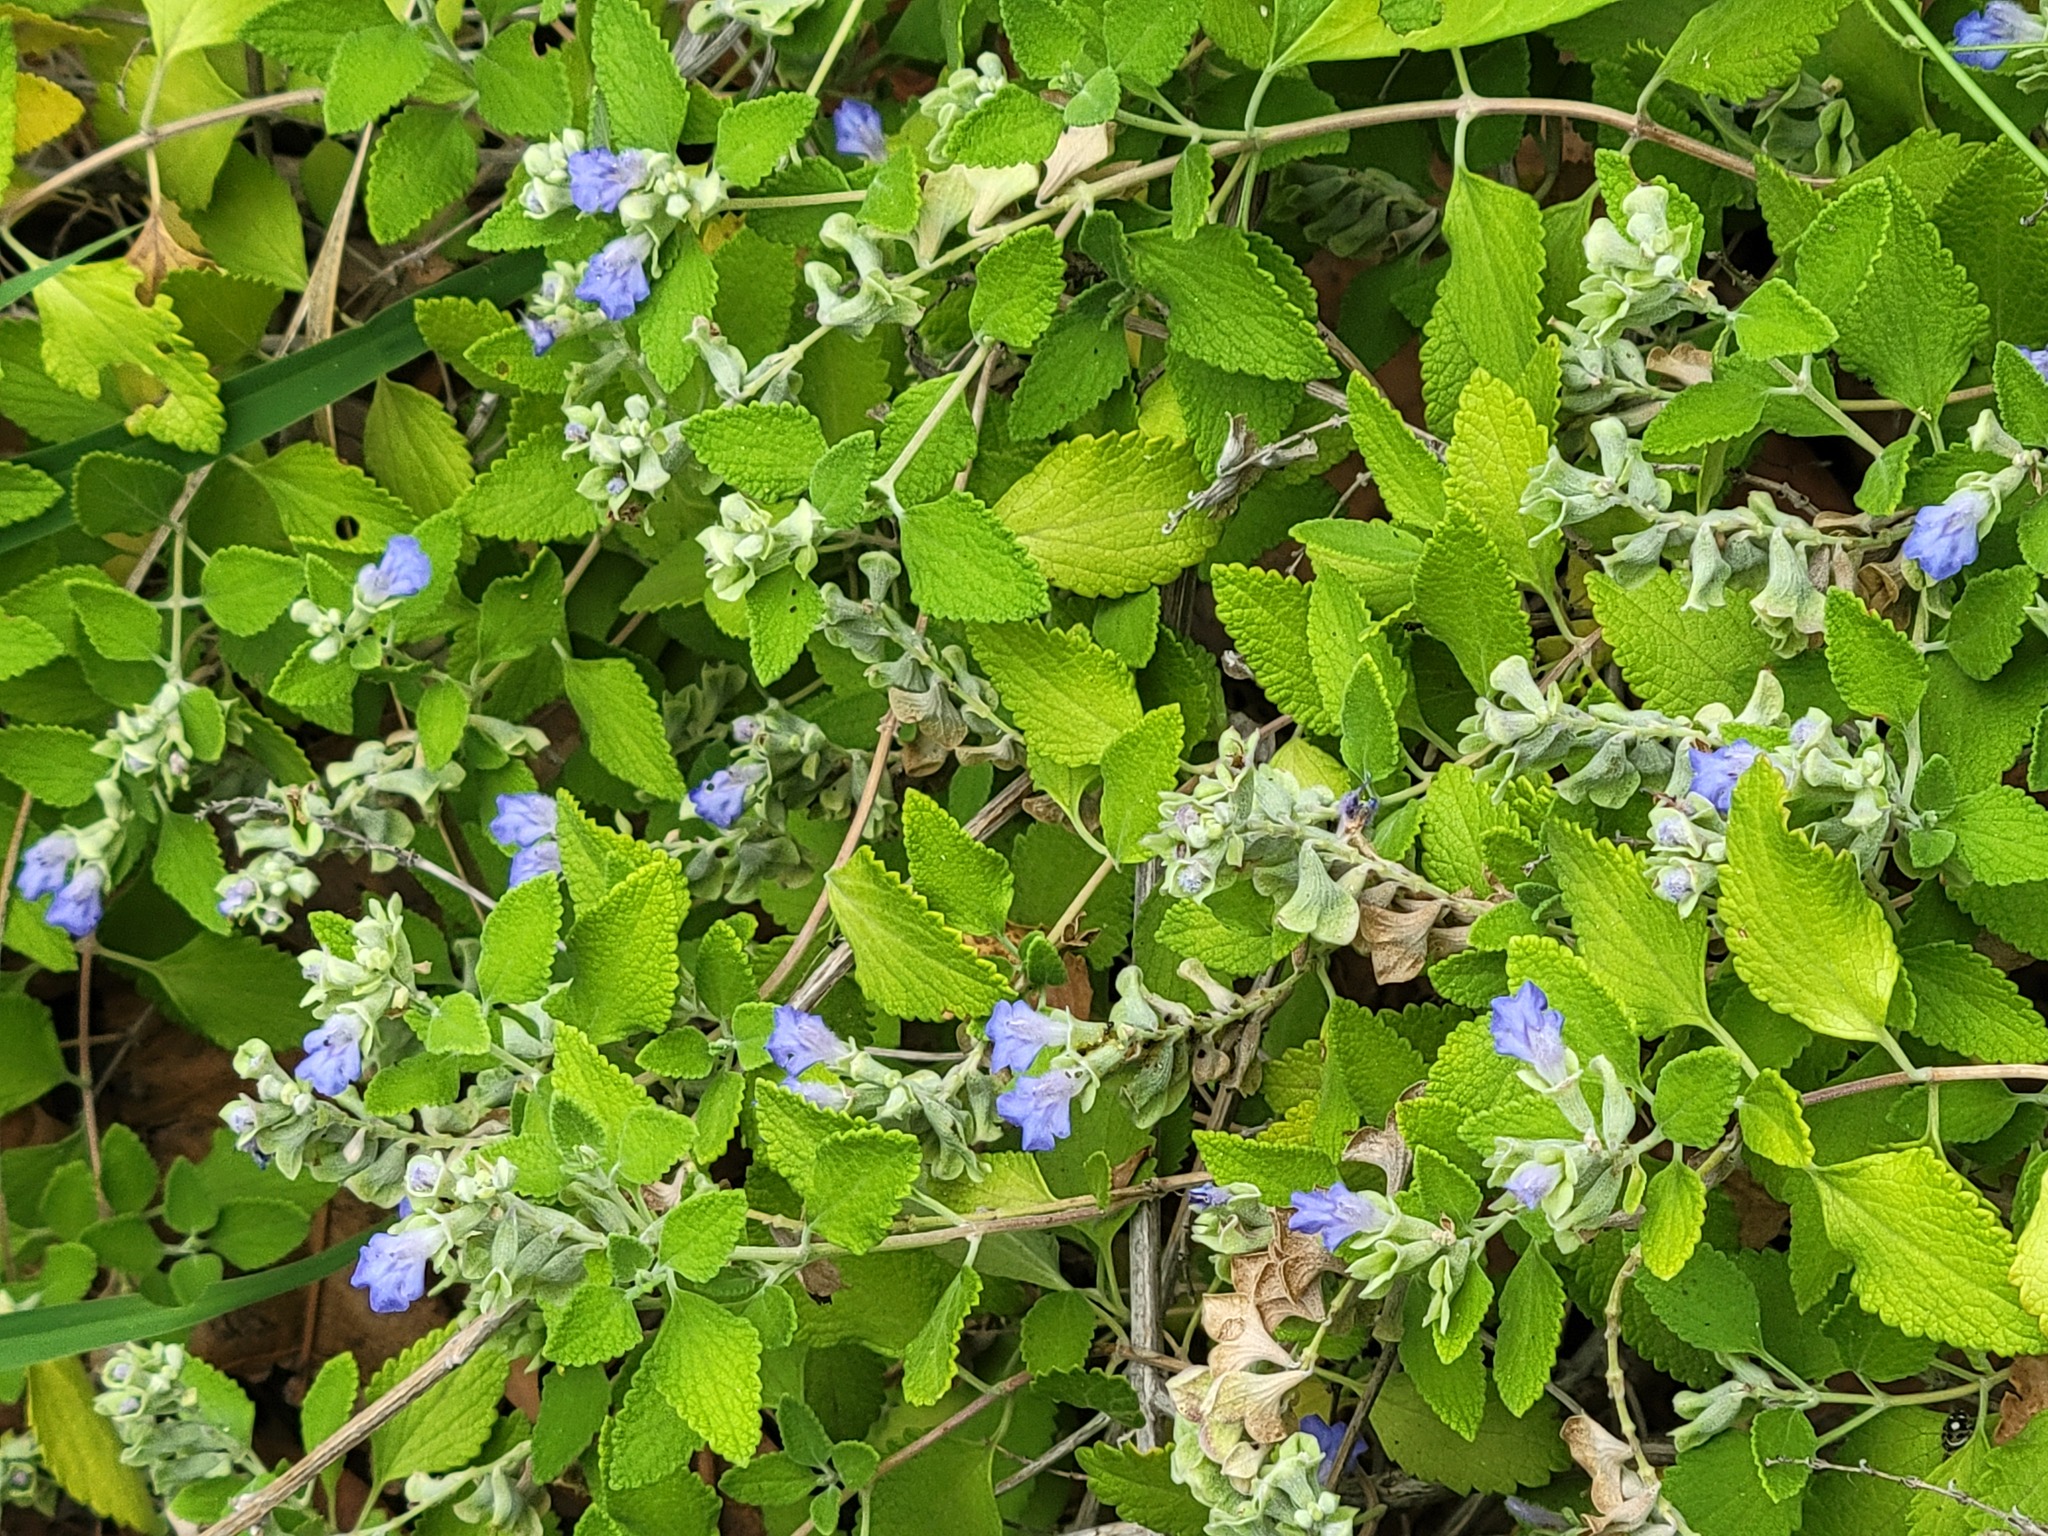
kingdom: Plantae
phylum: Tracheophyta
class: Magnoliopsida
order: Lamiales
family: Lamiaceae
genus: Salvia
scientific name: Salvia ballotiflora
